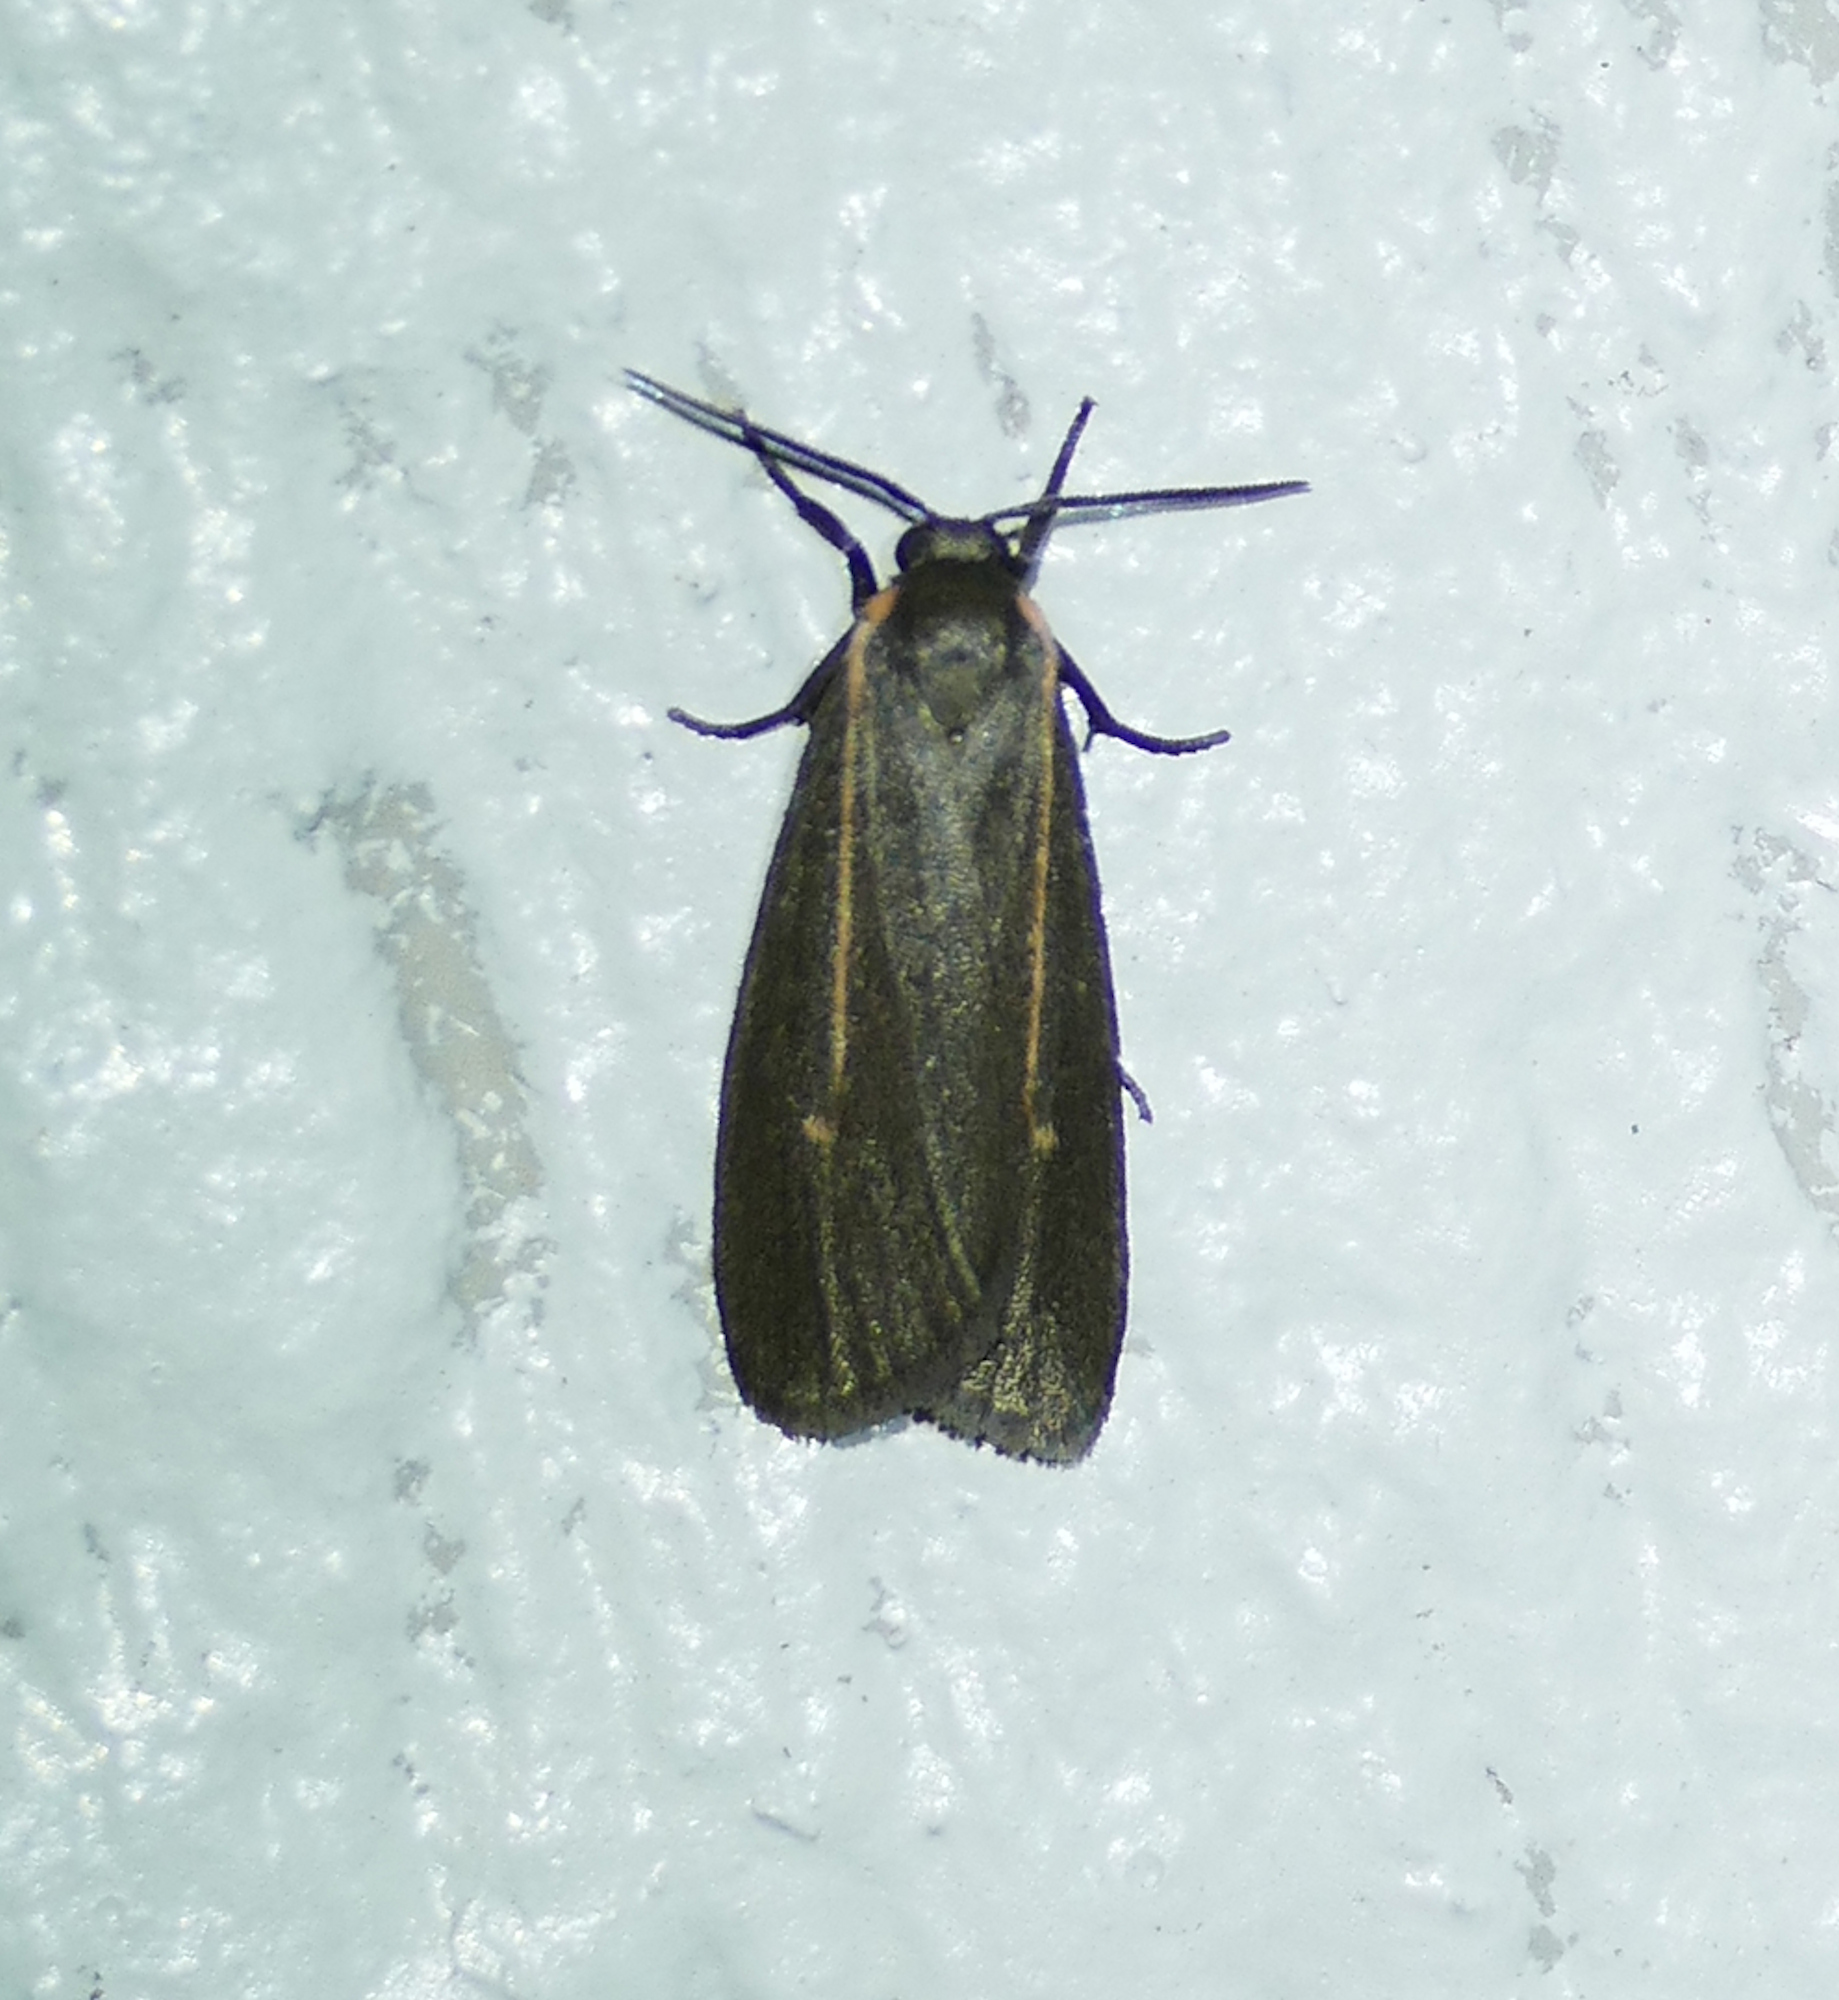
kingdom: Animalia
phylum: Arthropoda
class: Insecta
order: Lepidoptera
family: Erebidae
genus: Hypoprepia
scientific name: Hypoprepia inculta
